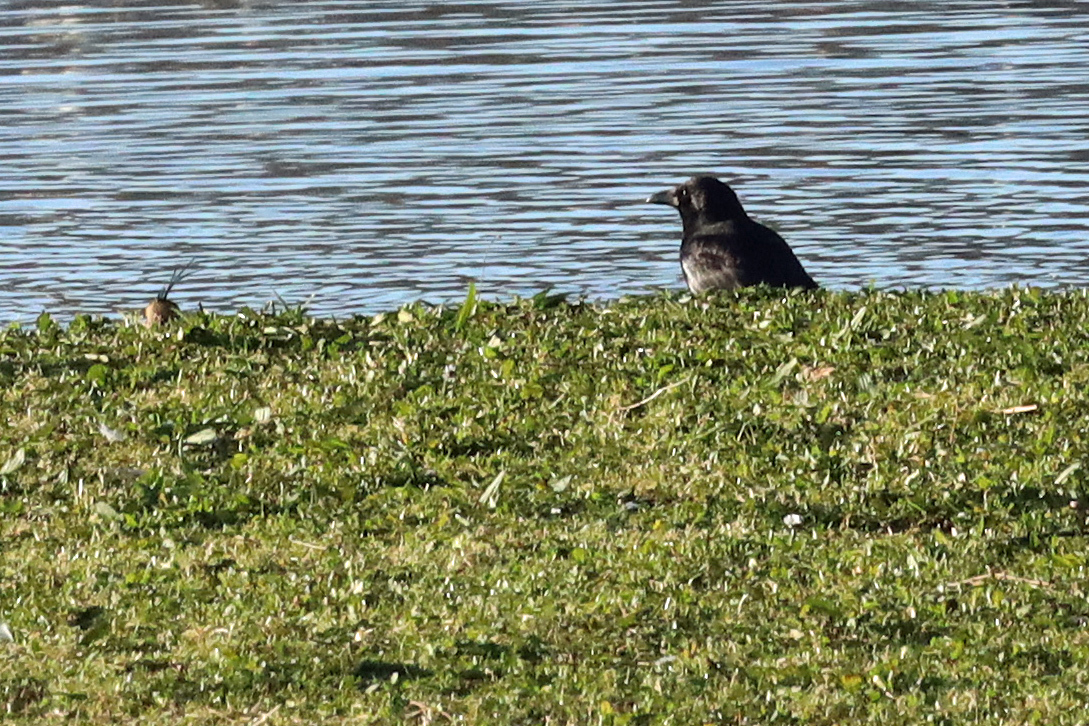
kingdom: Animalia
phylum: Chordata
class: Aves
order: Passeriformes
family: Corvidae
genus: Corvus
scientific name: Corvus corone
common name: Carrion crow
